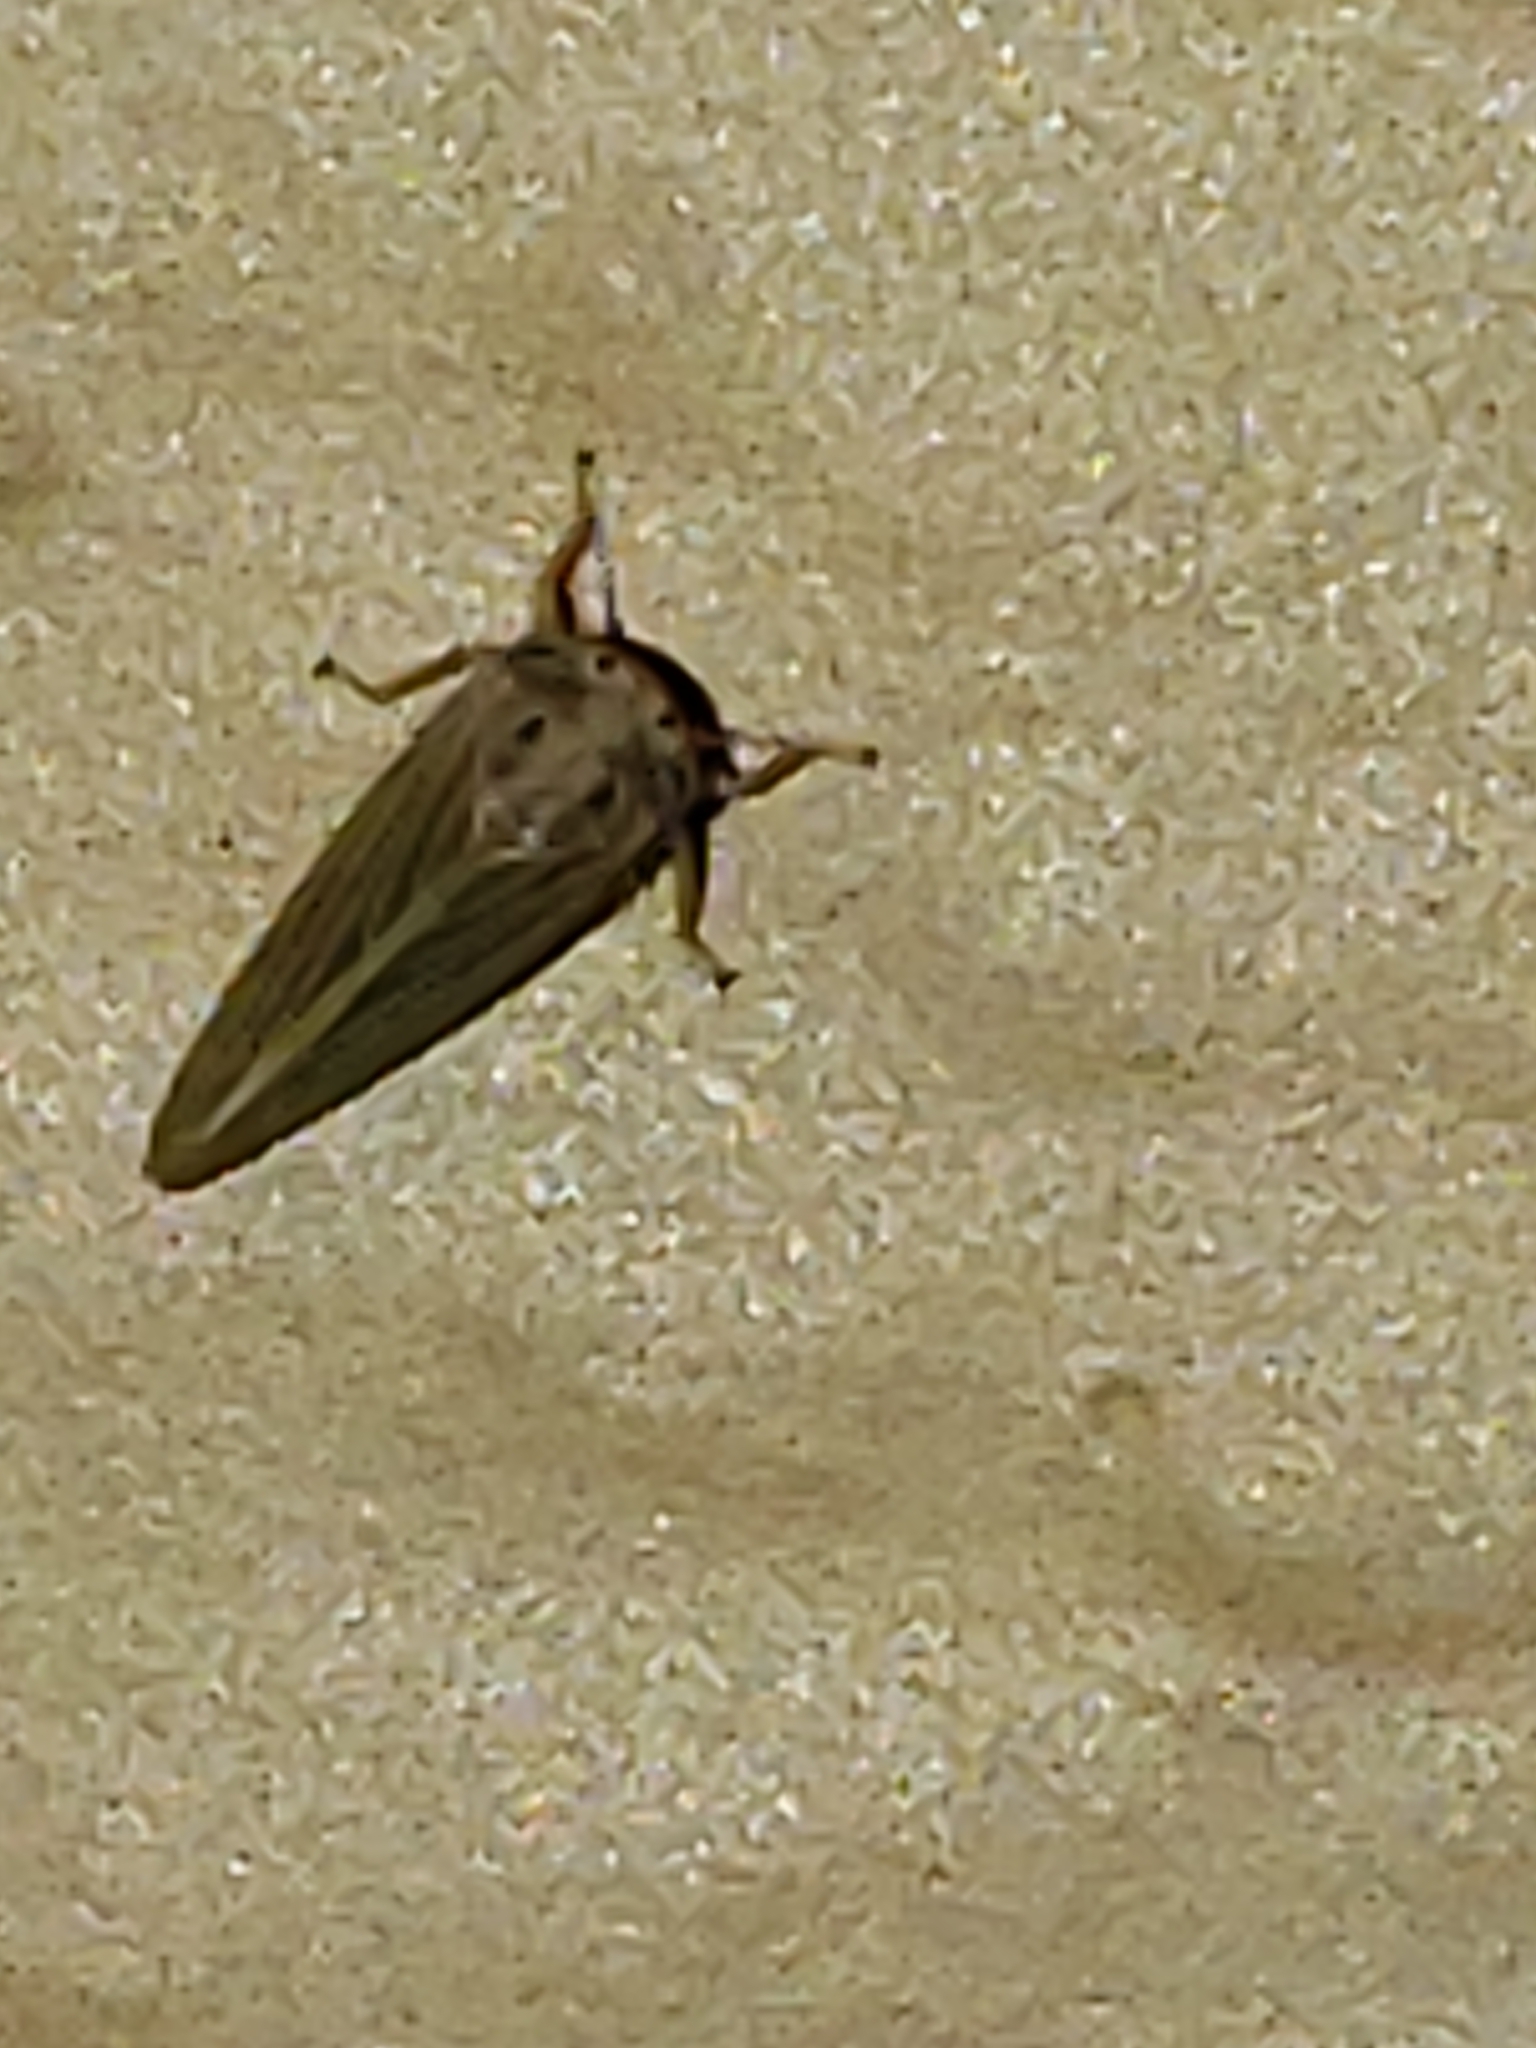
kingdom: Animalia
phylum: Arthropoda
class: Insecta
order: Hemiptera
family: Cicadellidae
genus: Agallia
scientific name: Agallia constricta
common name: The constricted leafhopper
